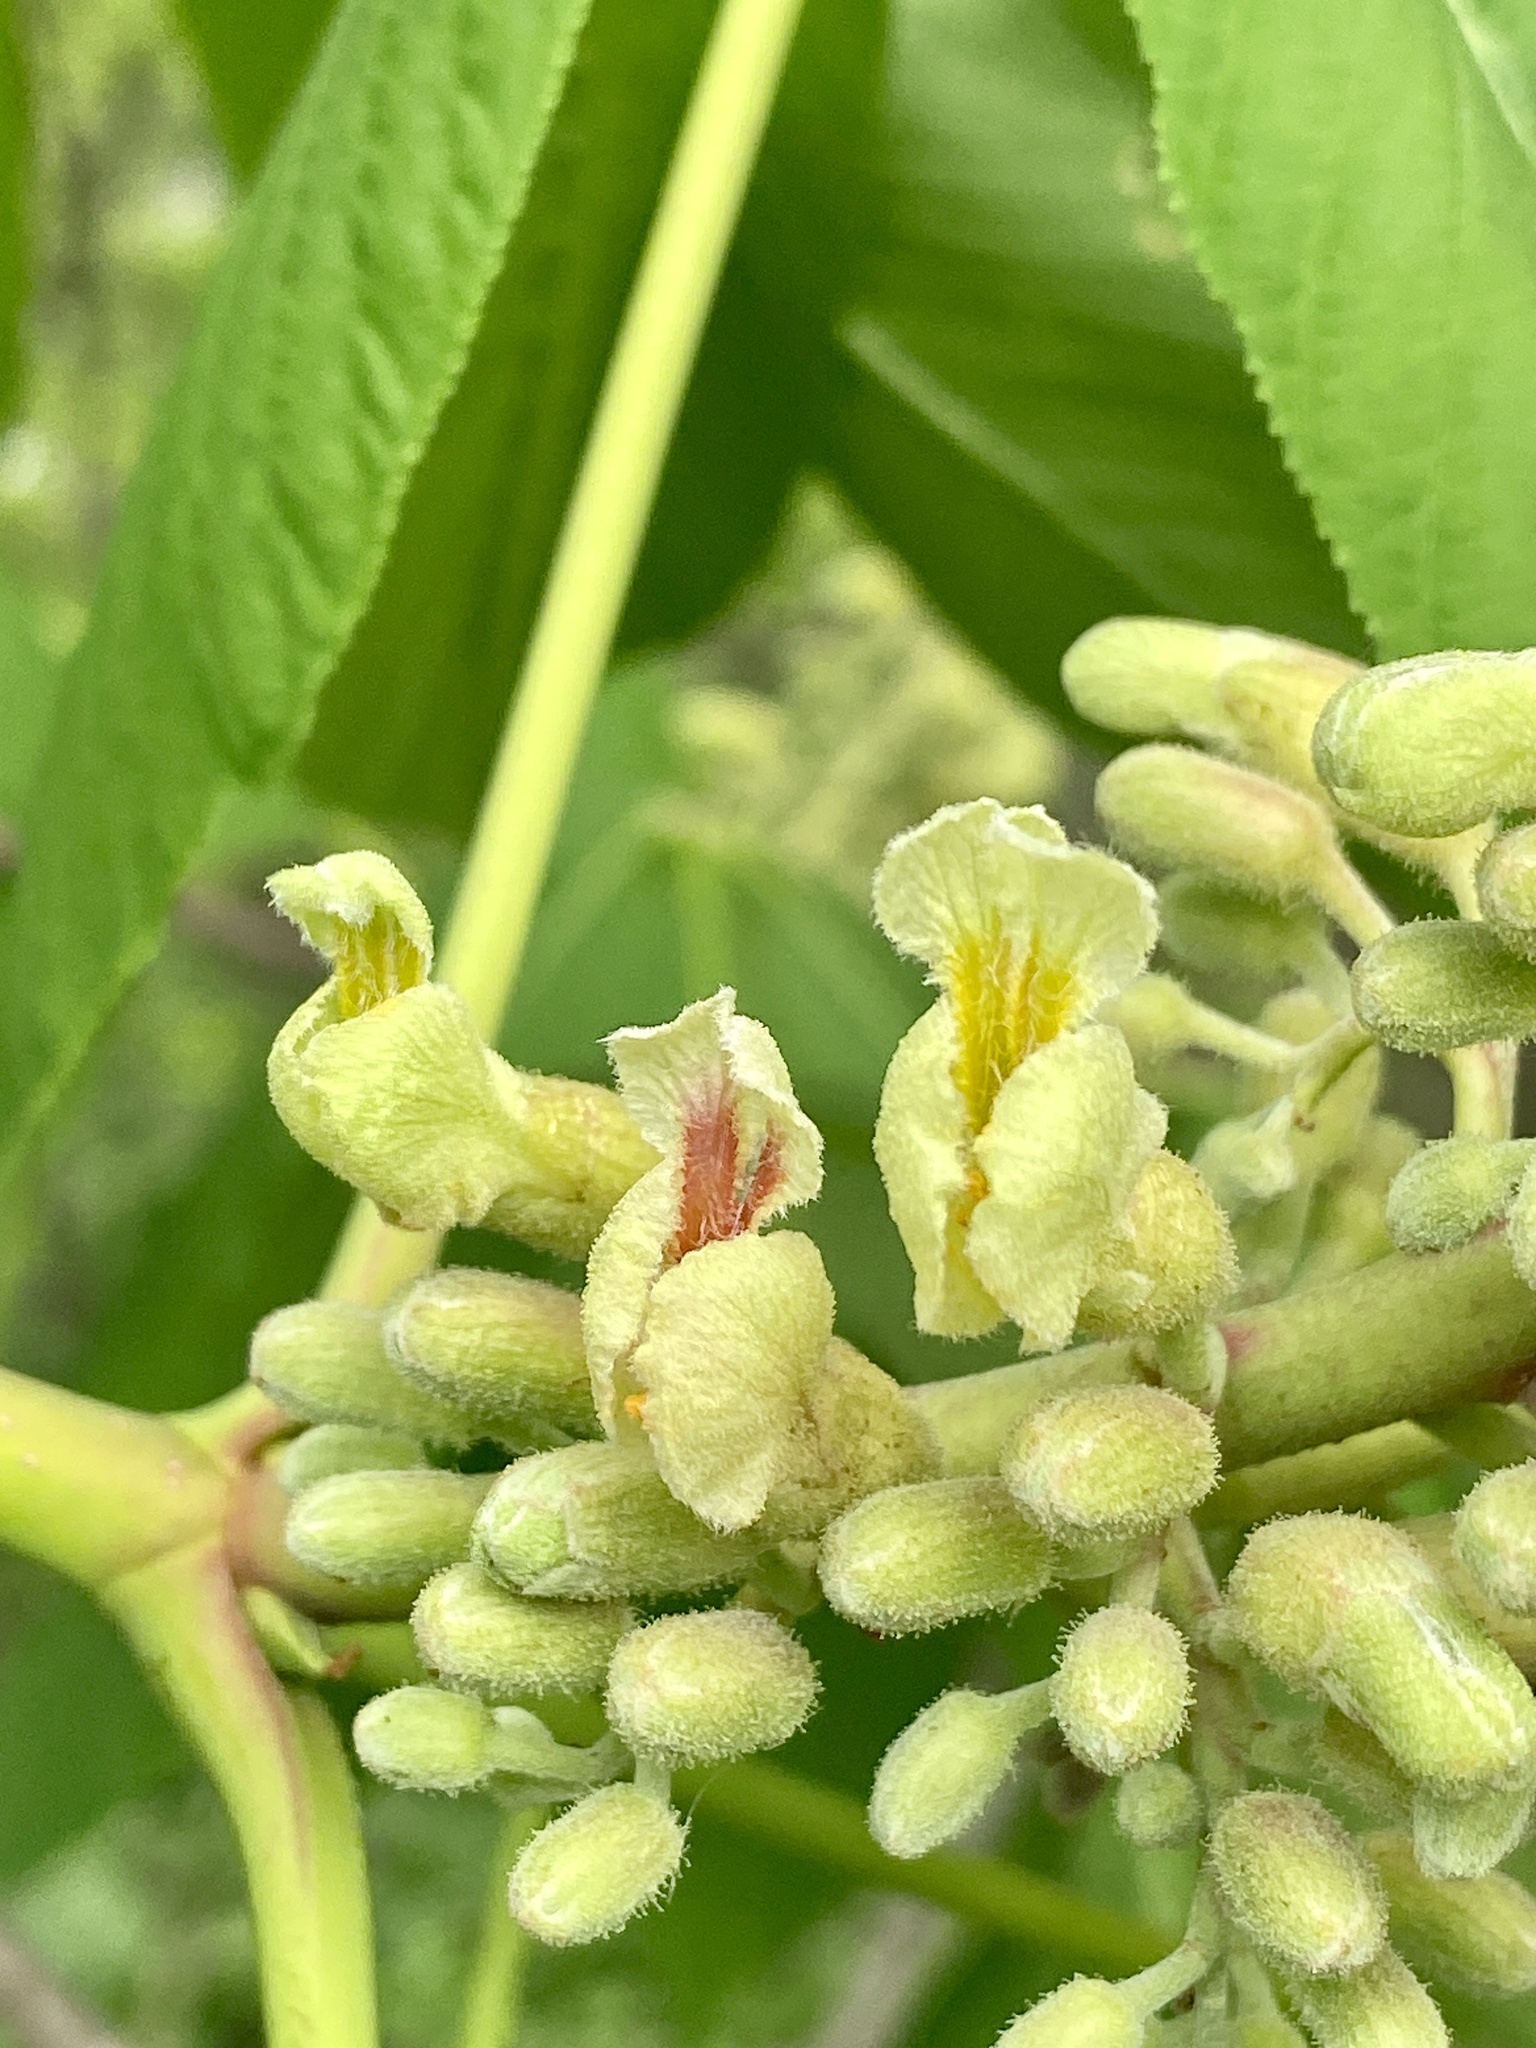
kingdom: Plantae
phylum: Tracheophyta
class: Magnoliopsida
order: Sapindales
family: Sapindaceae
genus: Aesculus
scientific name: Aesculus flava
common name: Yellow buckeye
